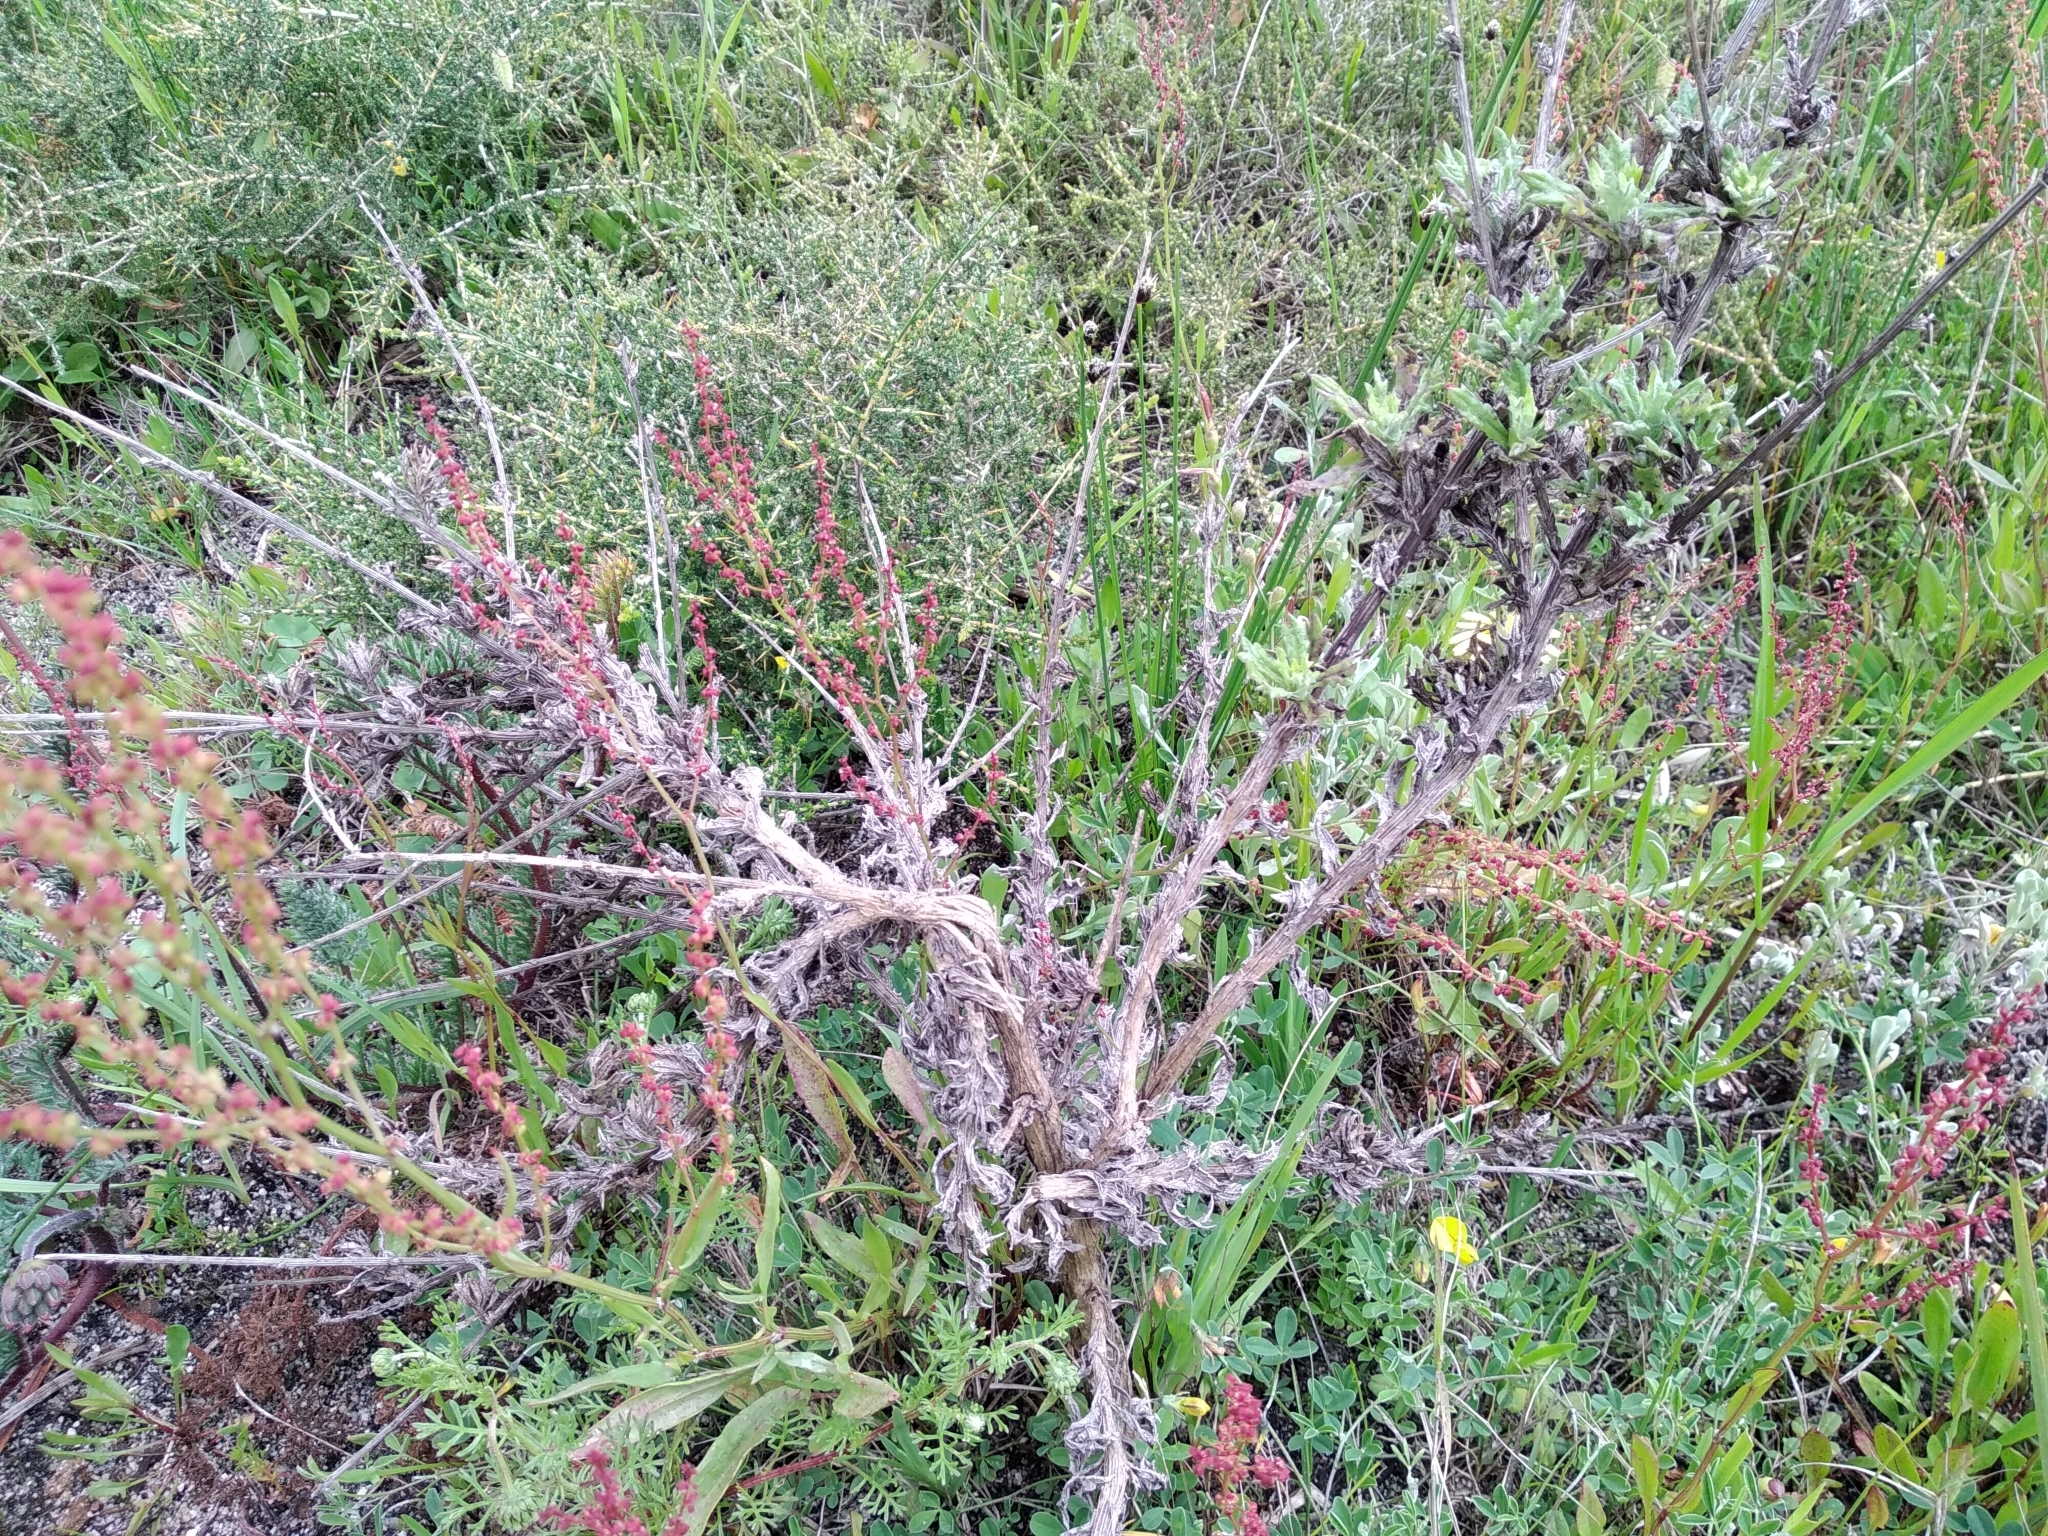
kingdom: Plantae
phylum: Tracheophyta
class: Magnoliopsida
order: Asterales
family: Asteraceae
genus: Senecio
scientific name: Senecio pubigerus
